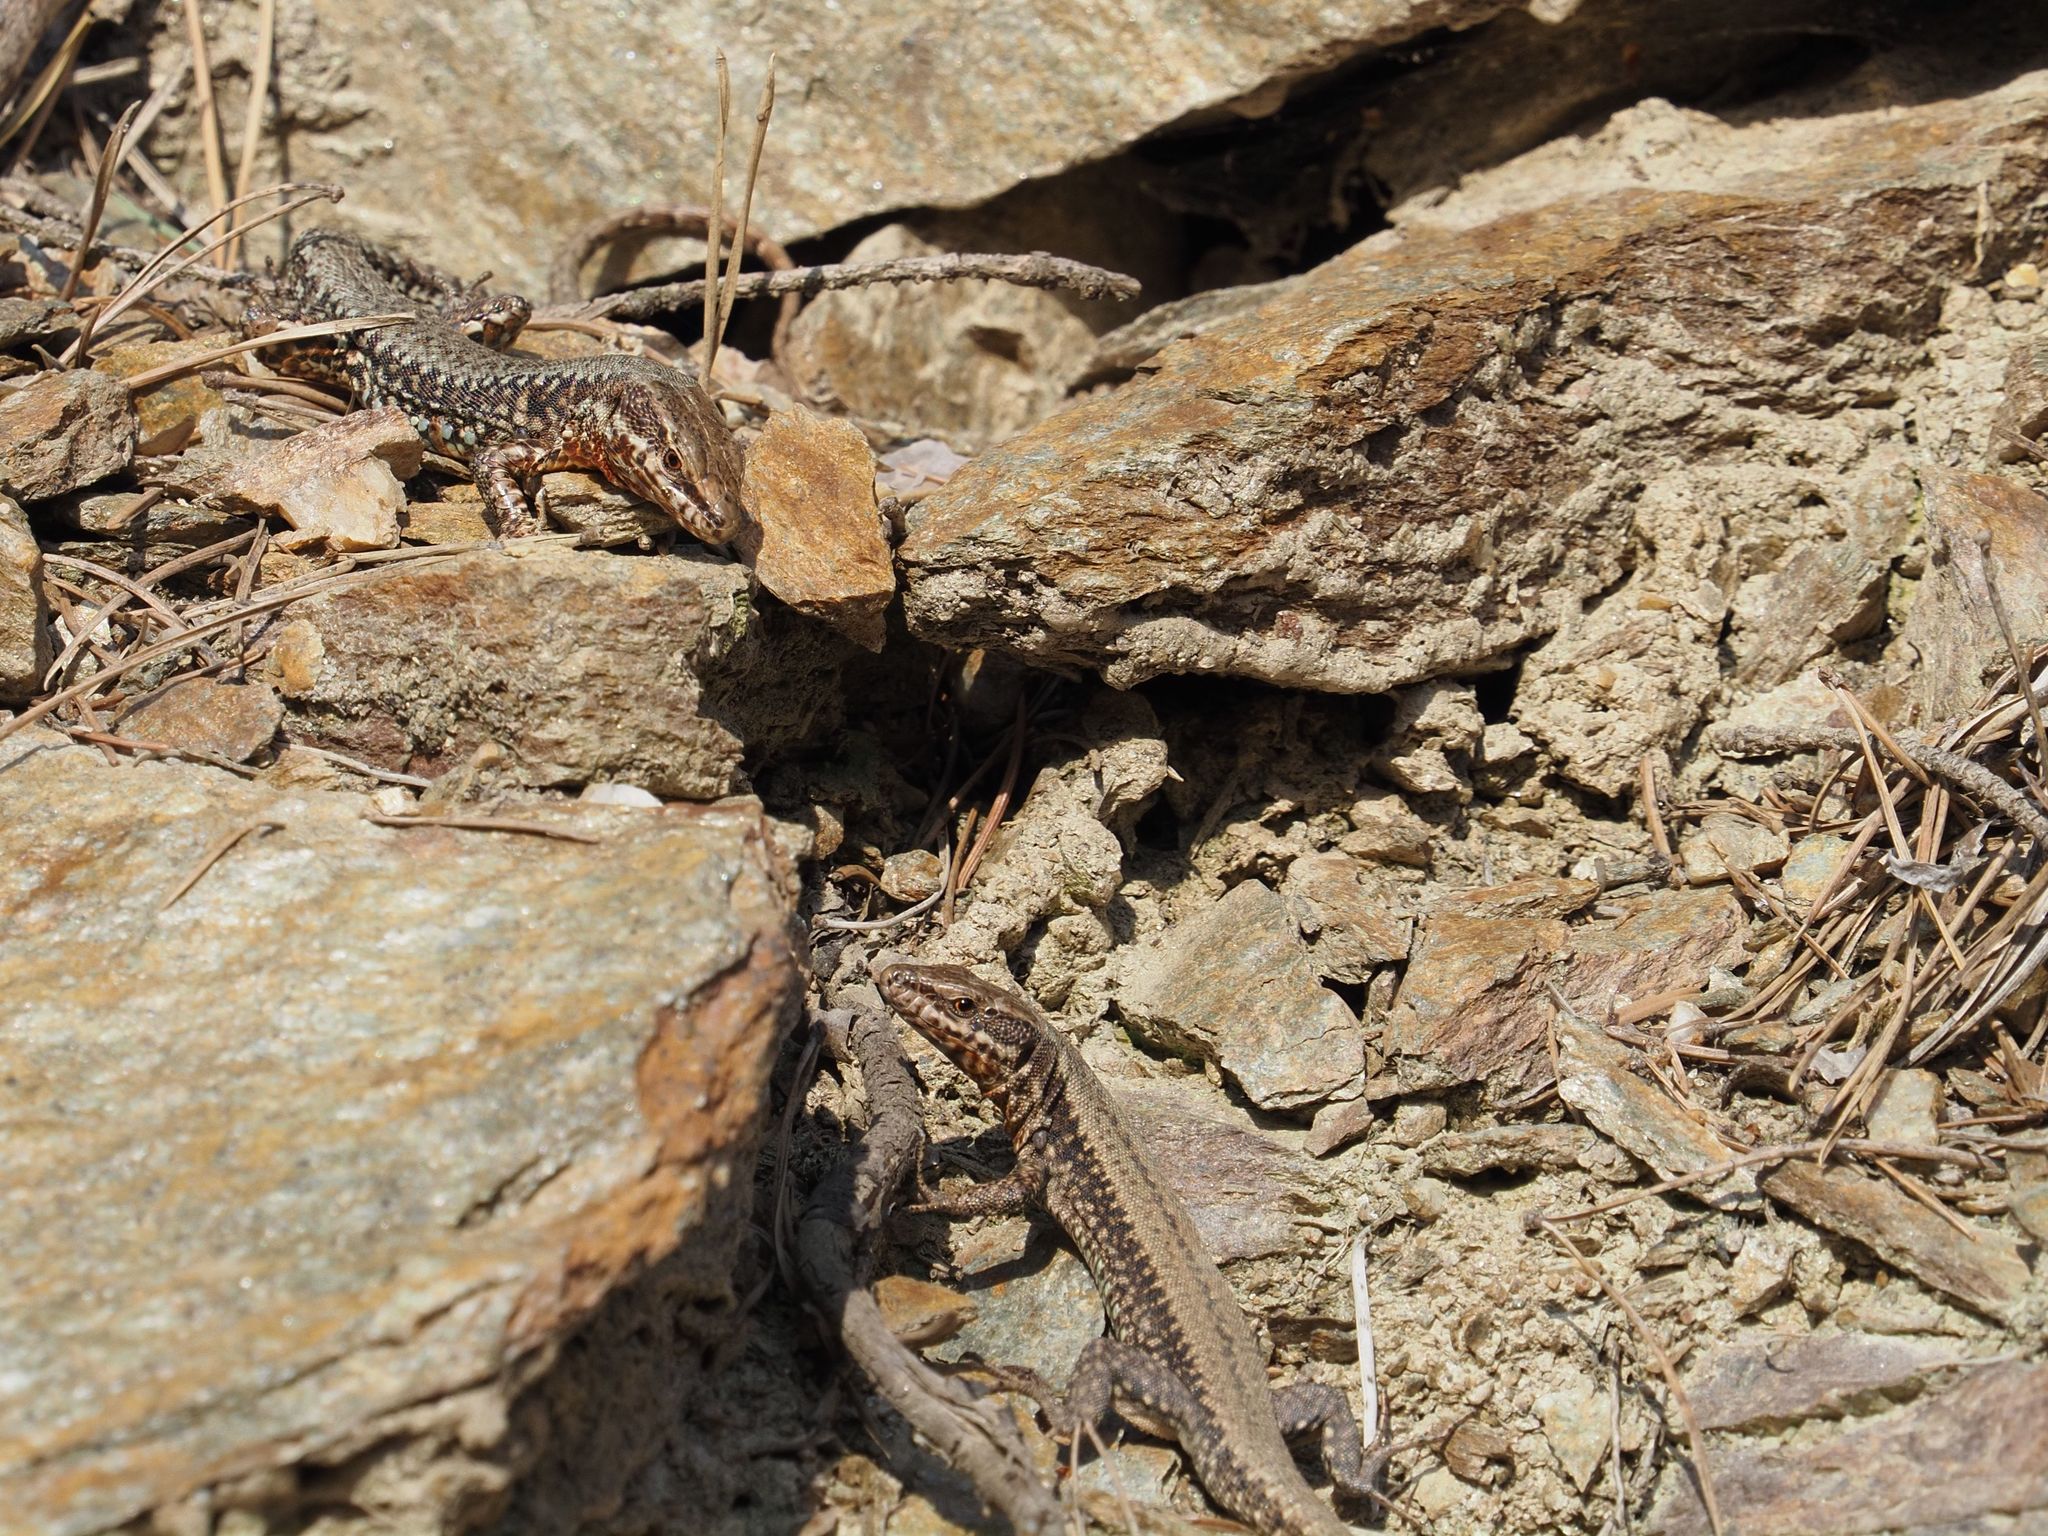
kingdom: Animalia
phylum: Chordata
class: Squamata
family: Lacertidae
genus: Podarcis
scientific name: Podarcis muralis
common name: Common wall lizard
